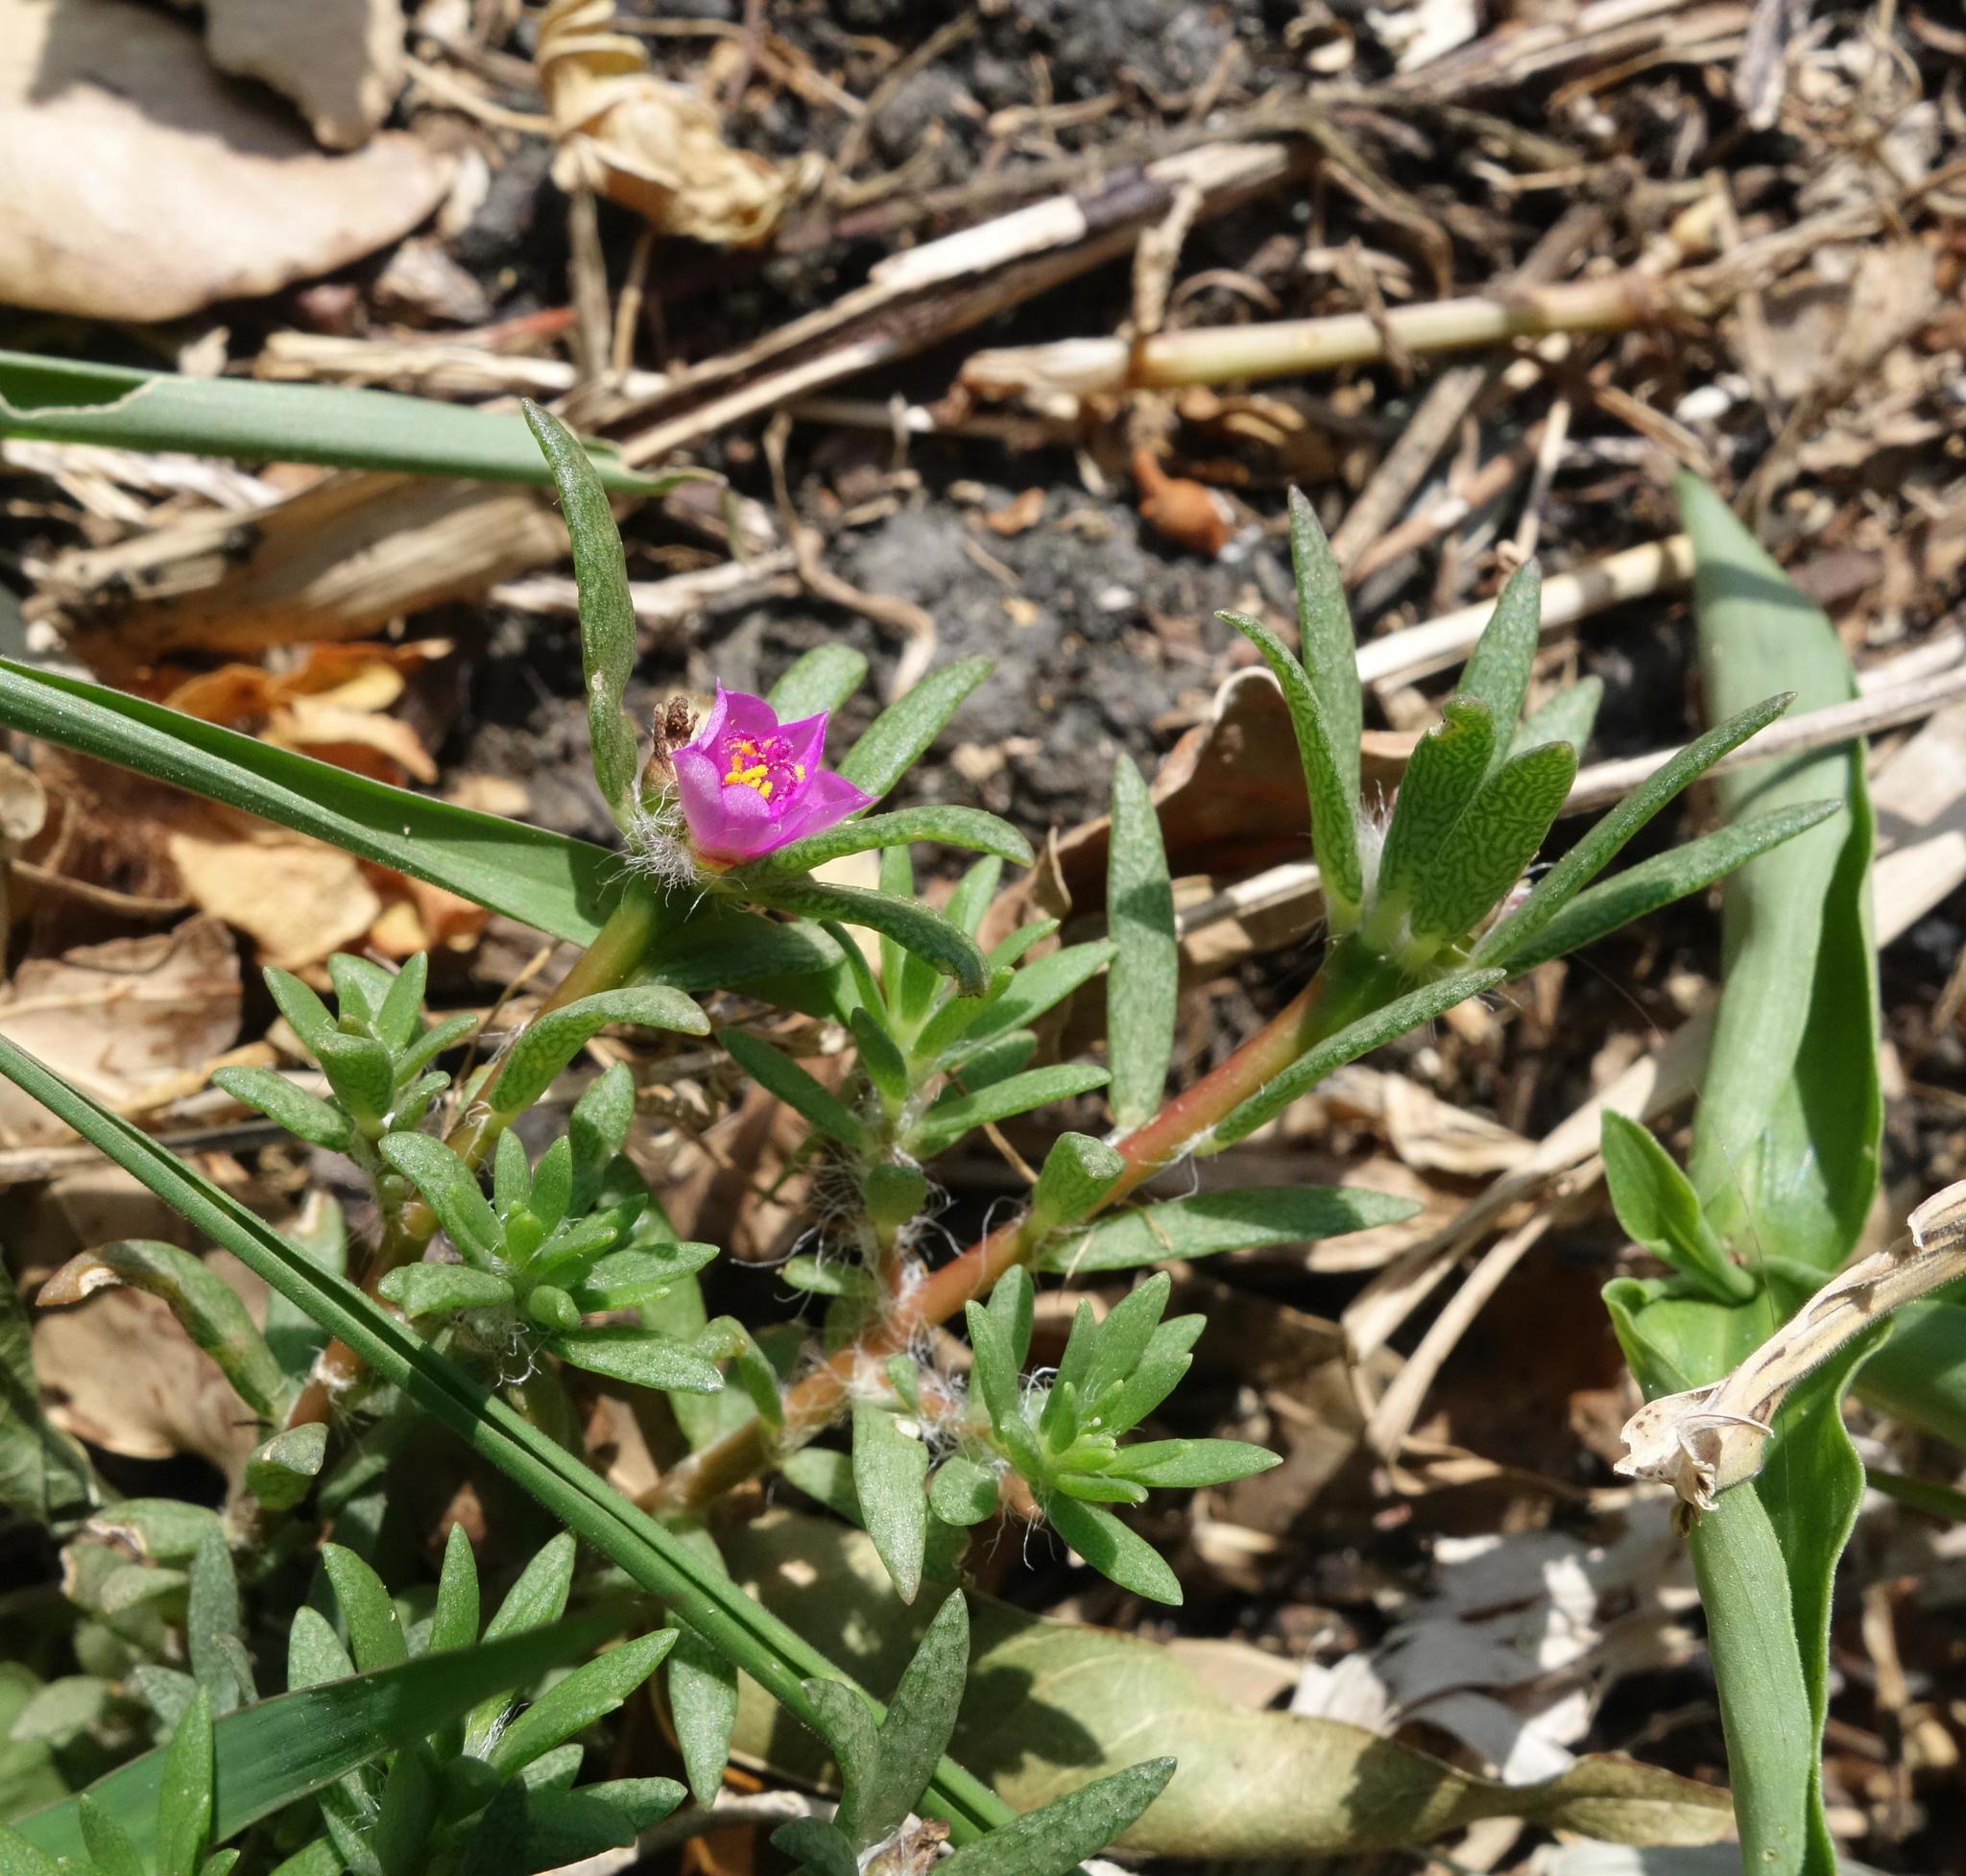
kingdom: Plantae
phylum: Tracheophyta
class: Magnoliopsida
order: Caryophyllales
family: Portulacaceae
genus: Portulaca
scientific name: Portulaca pilosa
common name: Kiss me quick
